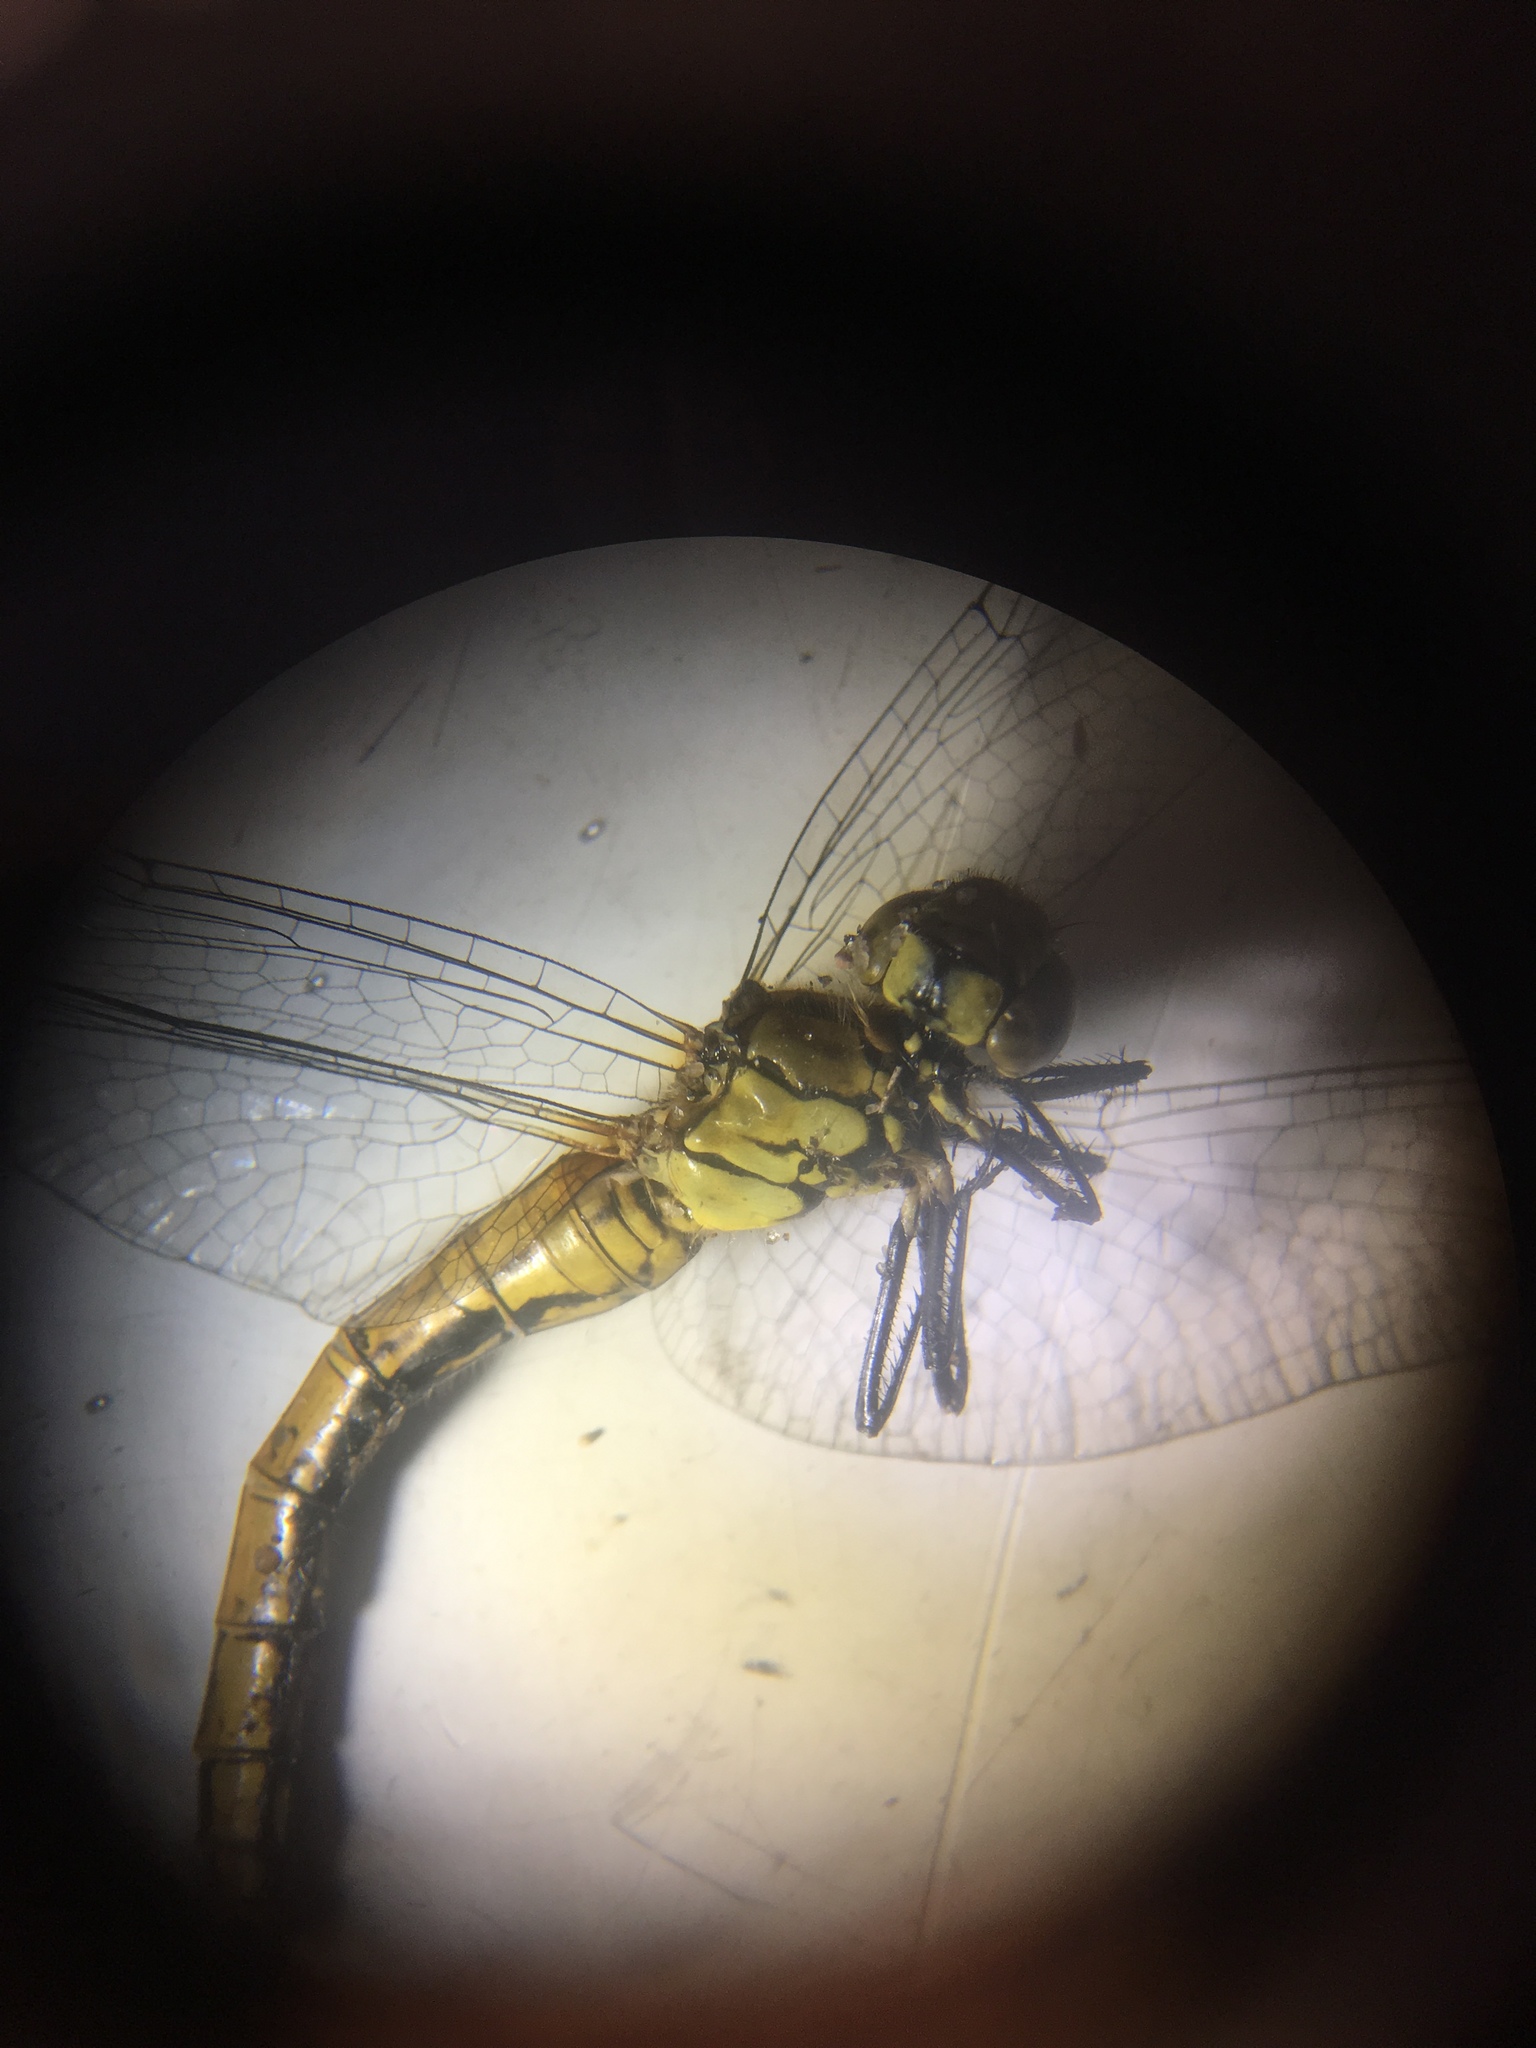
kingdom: Animalia
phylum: Arthropoda
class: Insecta
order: Odonata
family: Libellulidae
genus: Sympetrum
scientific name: Sympetrum sanguineum
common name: Ruddy darter
